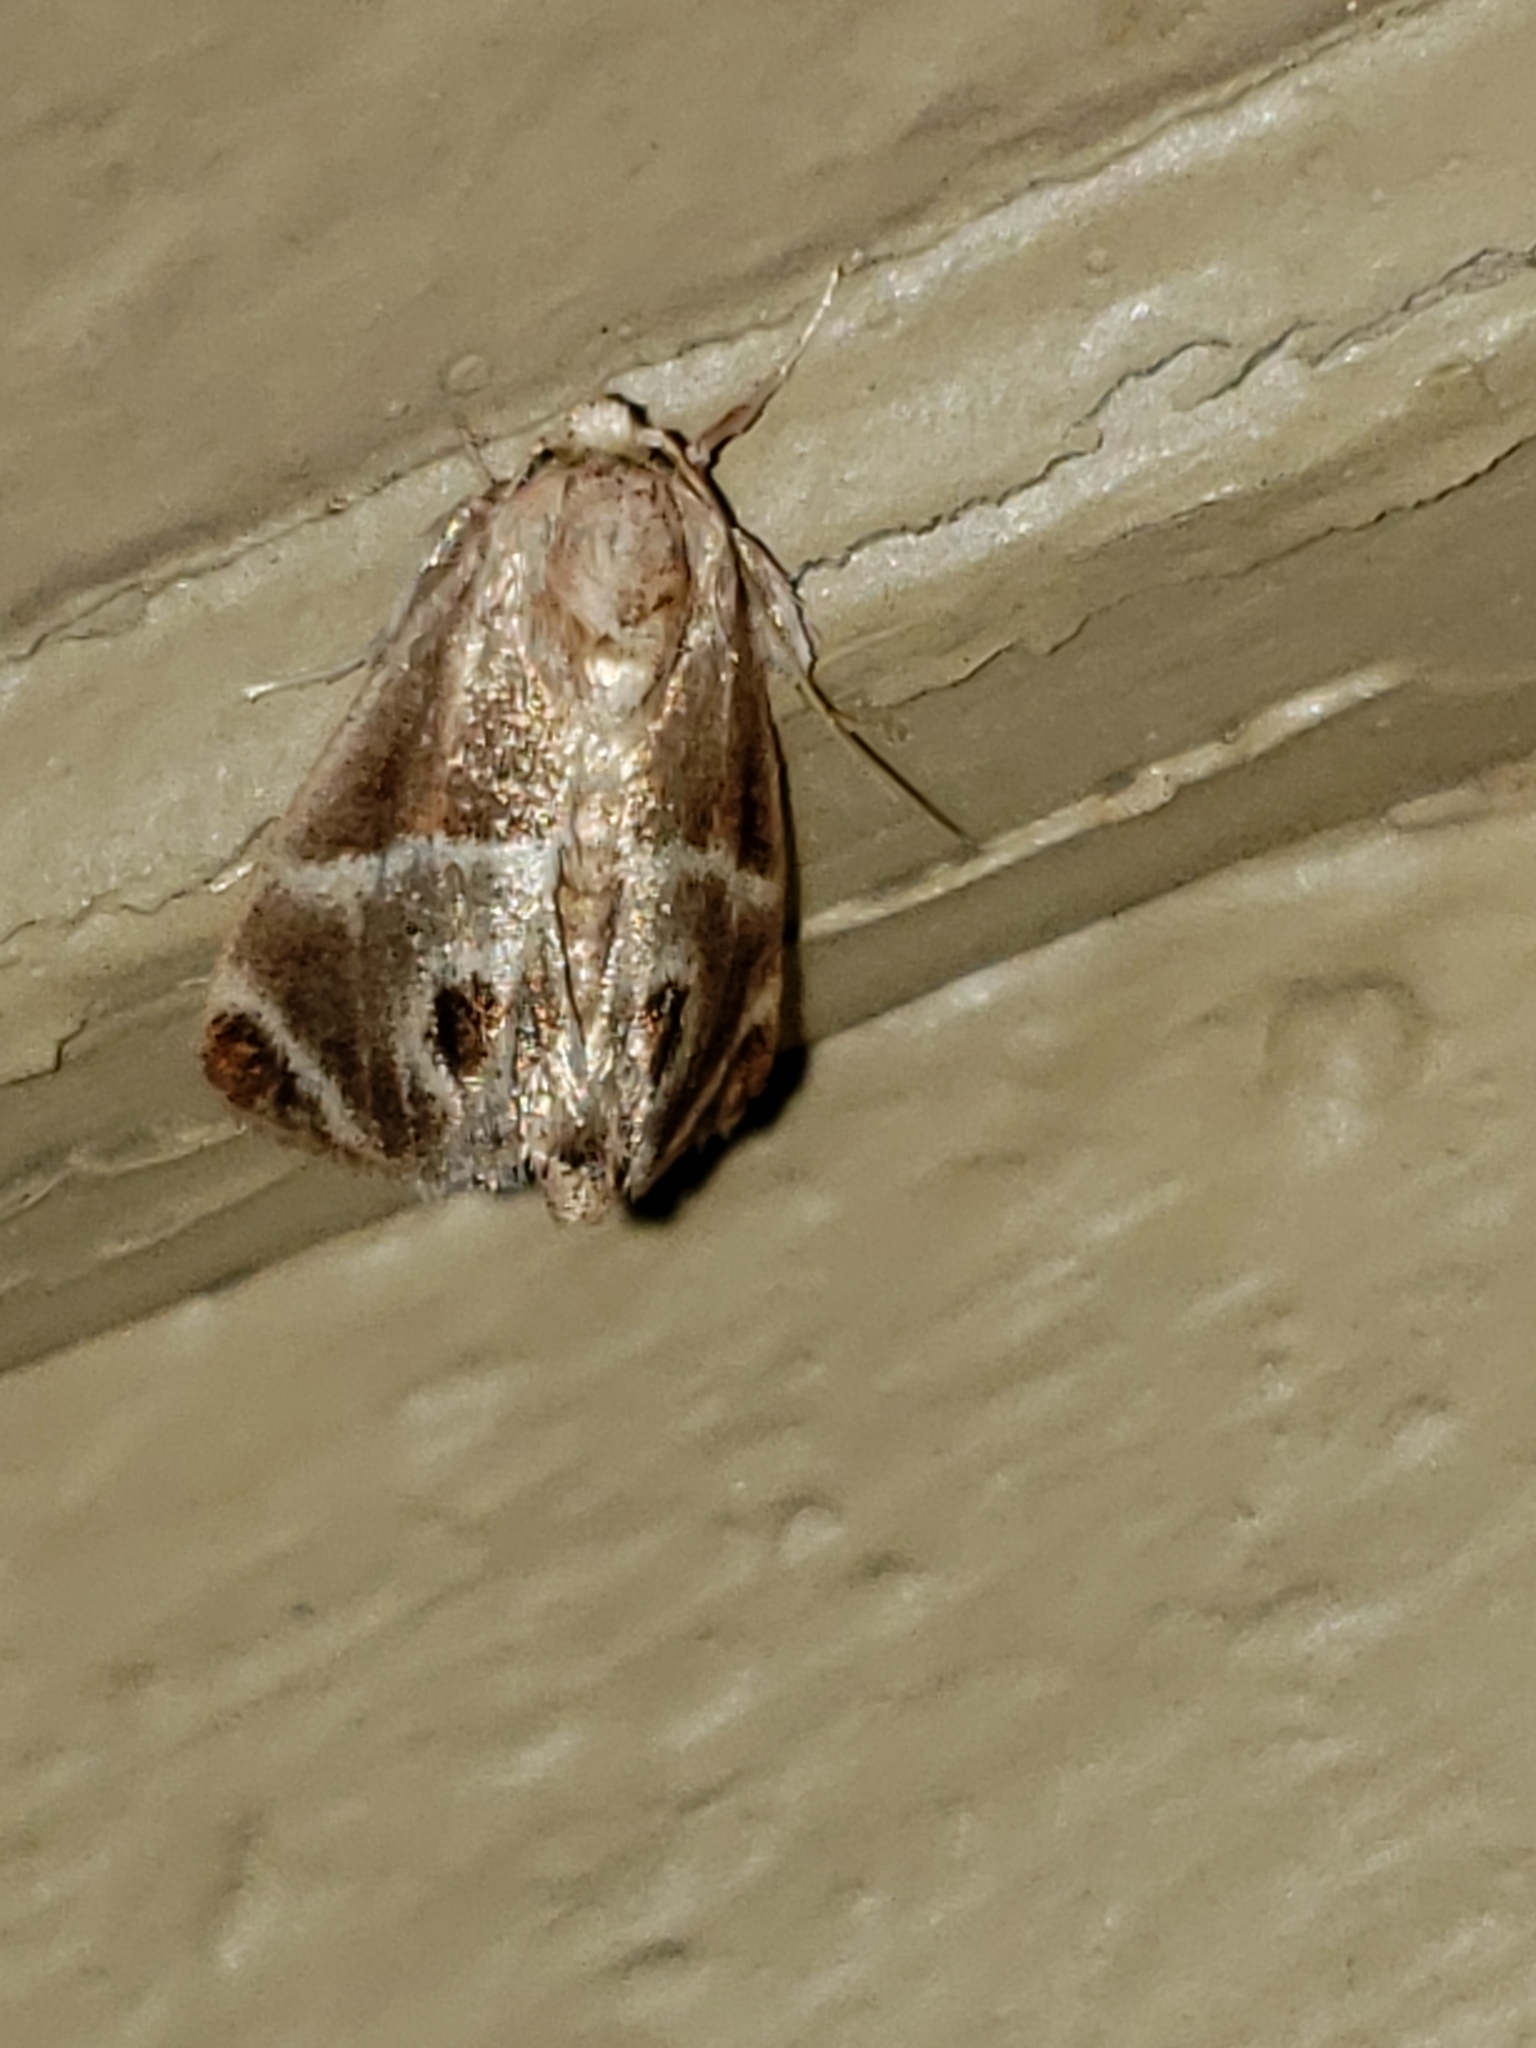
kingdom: Animalia
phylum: Arthropoda
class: Insecta
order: Lepidoptera
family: Limacodidae
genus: Apoda
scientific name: Apoda biguttata
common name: Shagreened slug moth
